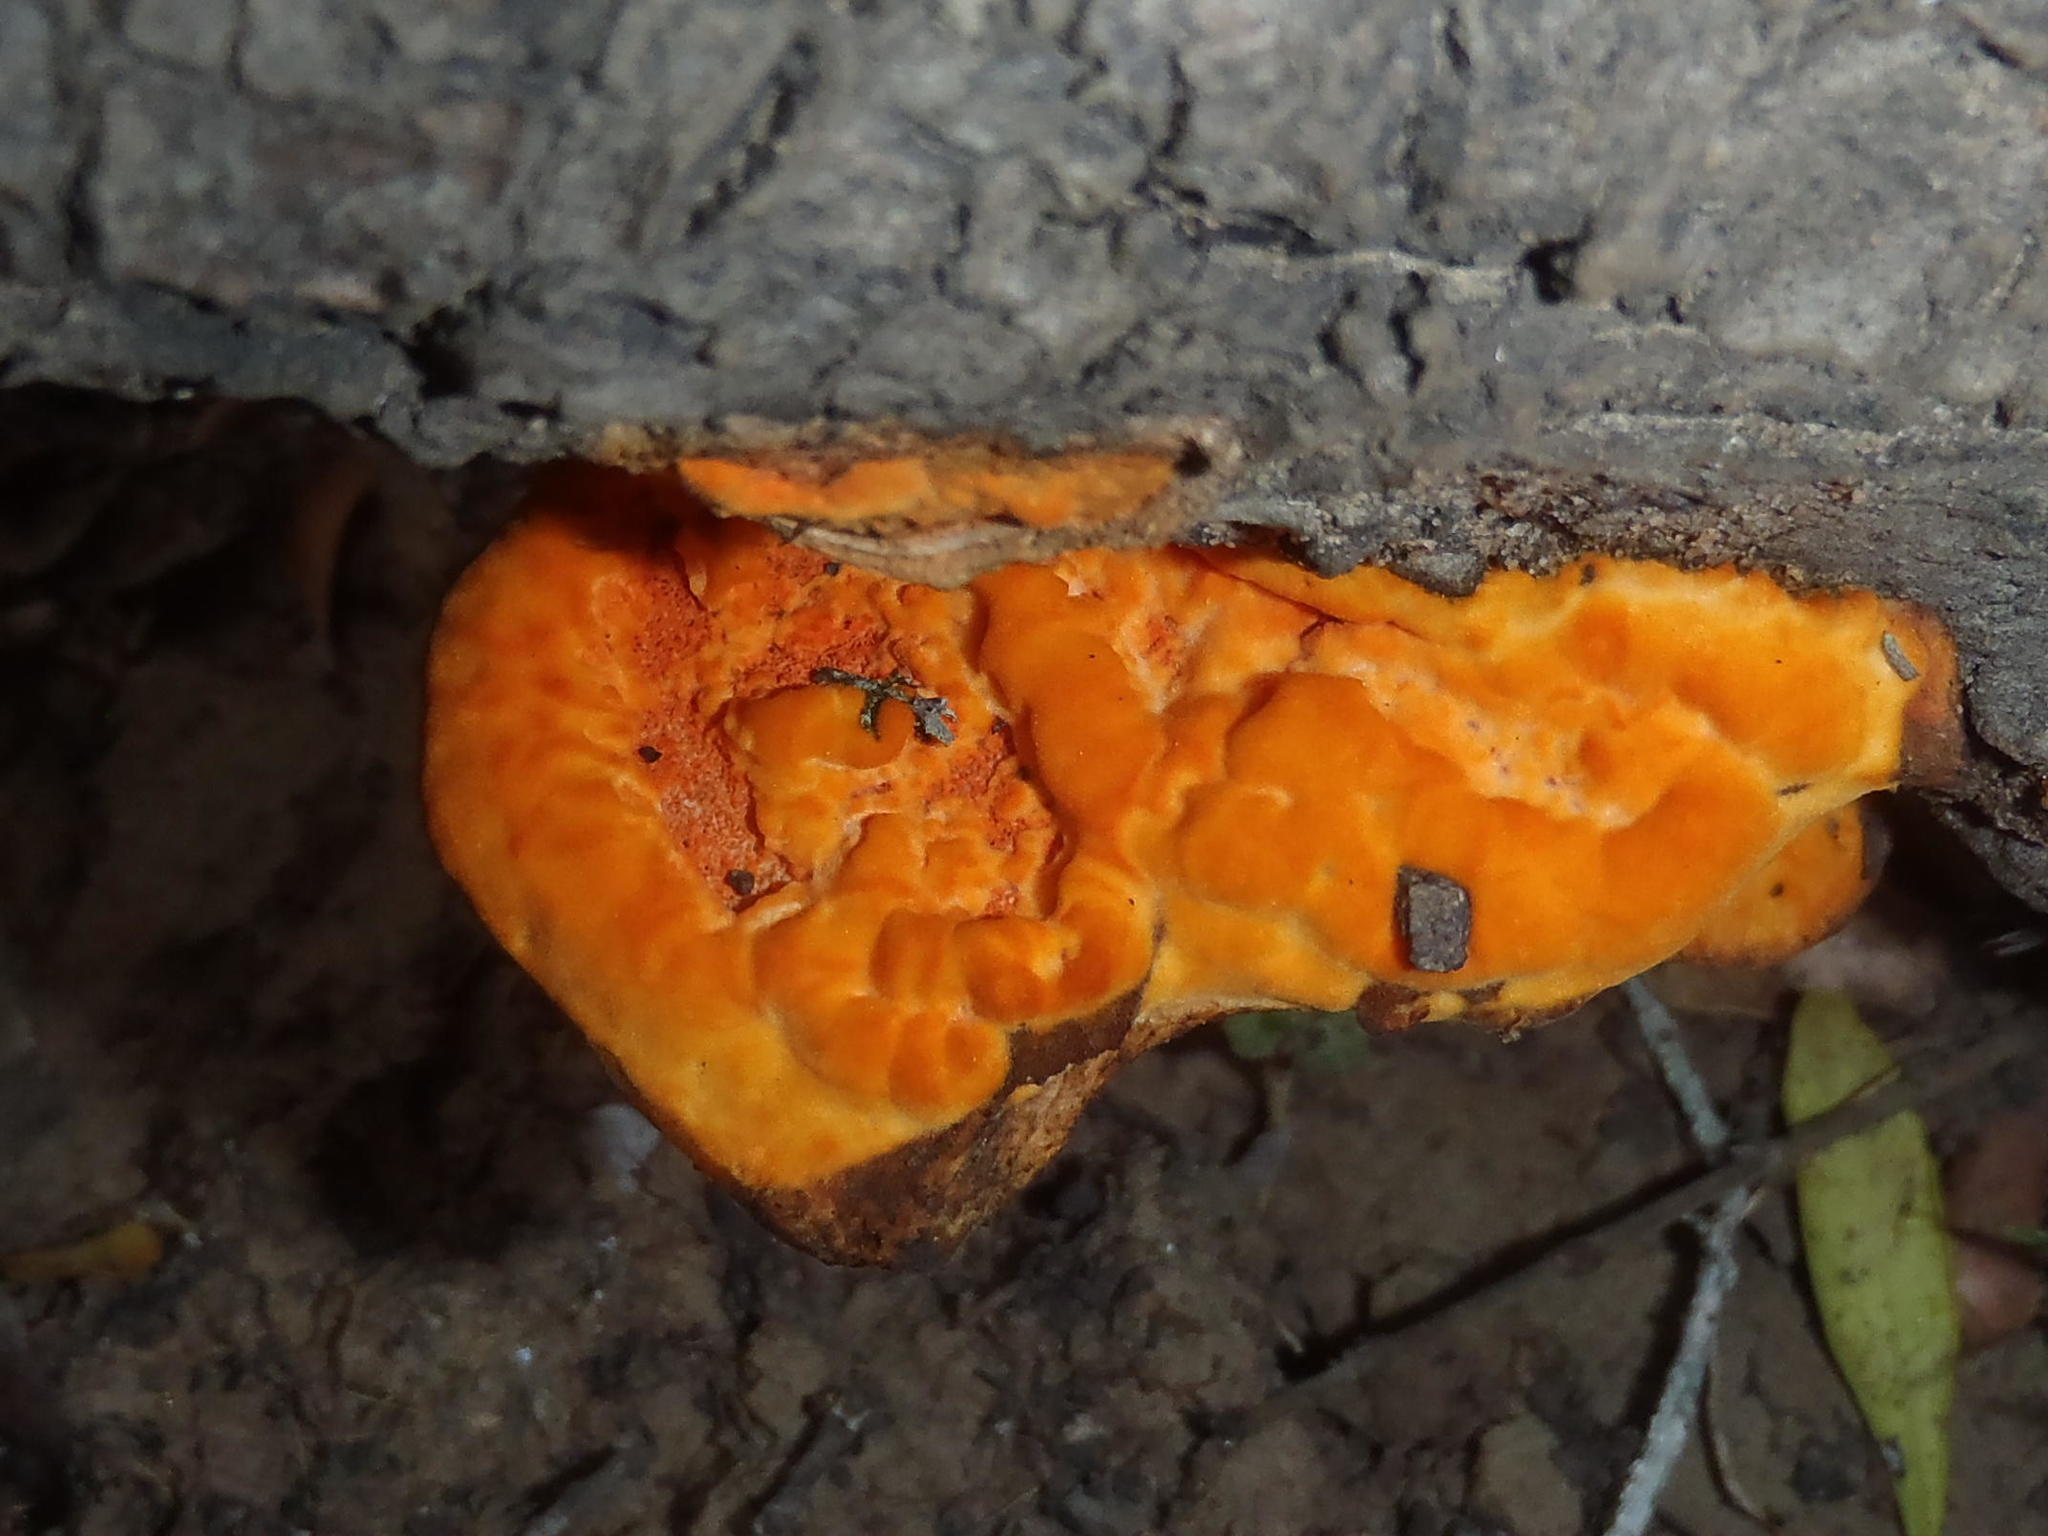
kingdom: Fungi
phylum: Basidiomycota
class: Agaricomycetes
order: Polyporales
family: Polyporaceae
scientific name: Polyporaceae
